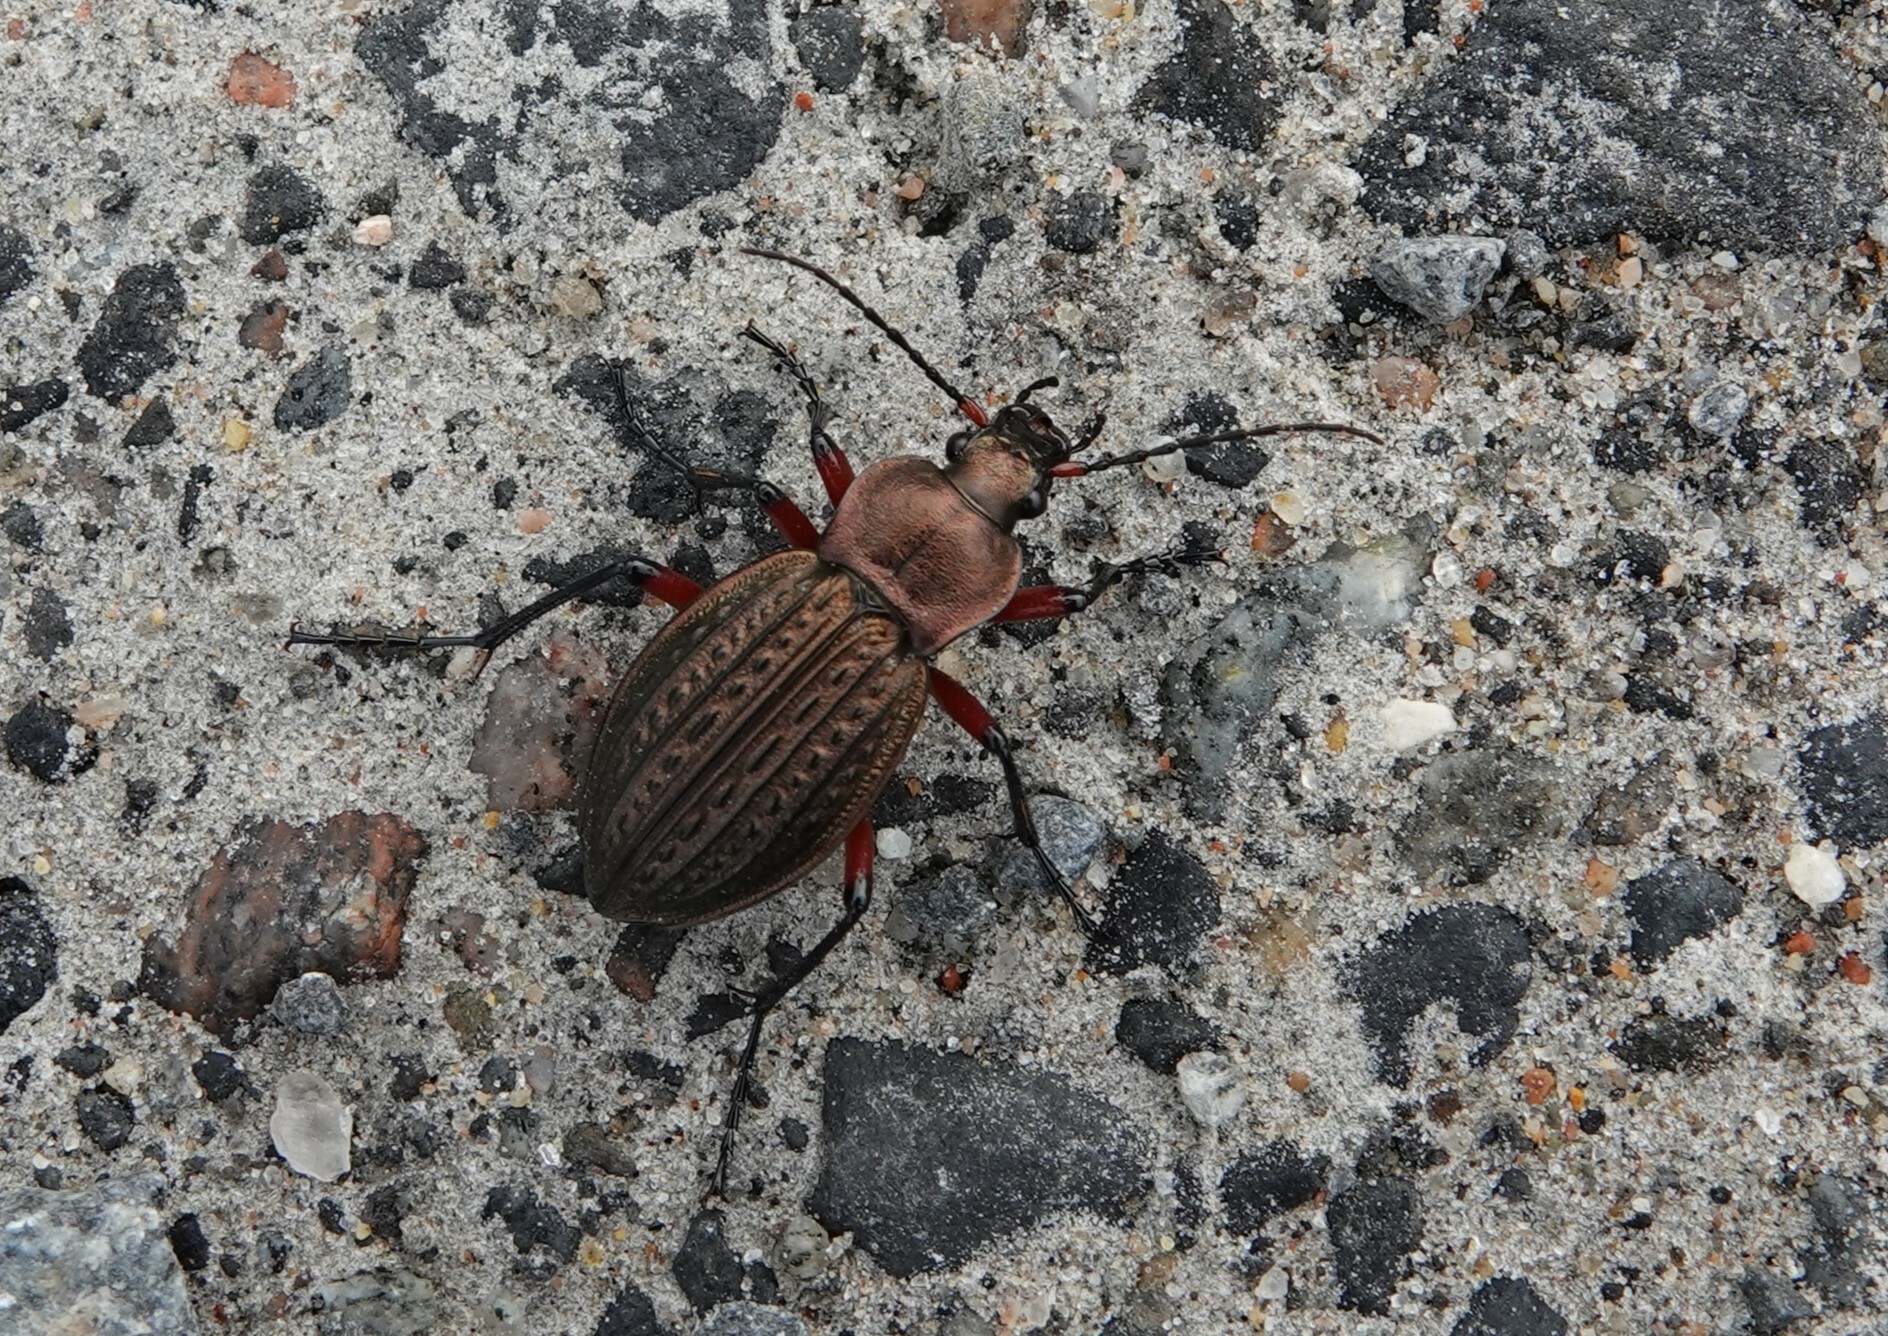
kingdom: Animalia
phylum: Arthropoda
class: Insecta
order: Coleoptera
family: Carabidae
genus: Carabus
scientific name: Carabus cancellatus
